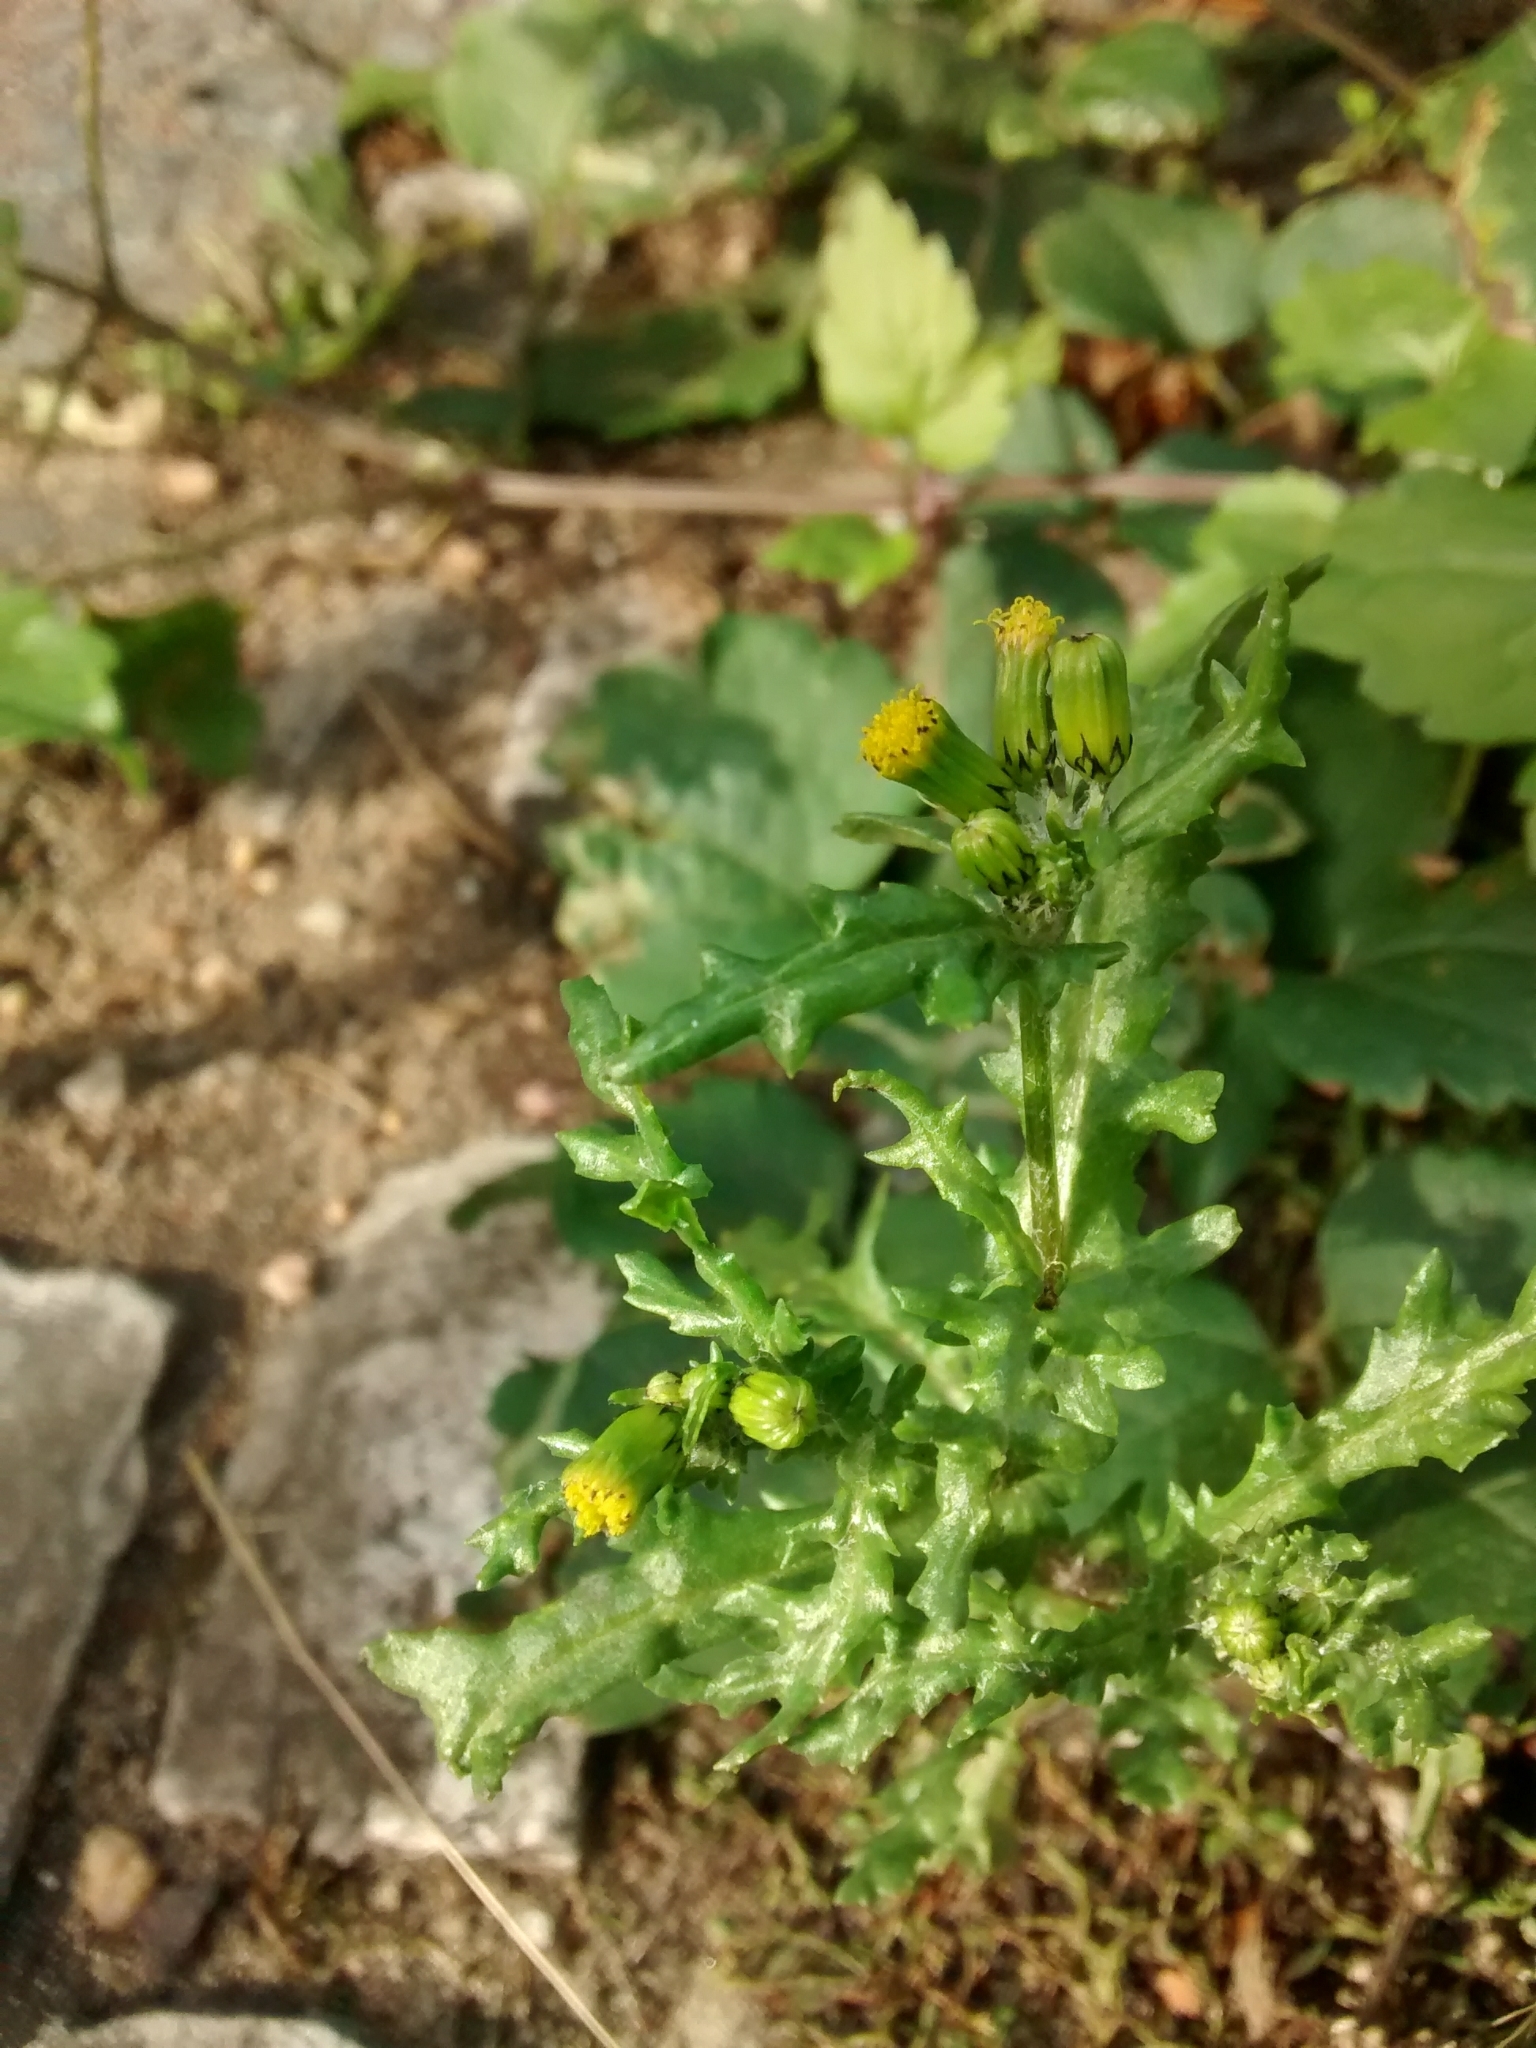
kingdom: Plantae
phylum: Tracheophyta
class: Magnoliopsida
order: Asterales
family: Asteraceae
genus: Senecio
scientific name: Senecio vulgaris
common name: Old-man-in-the-spring
